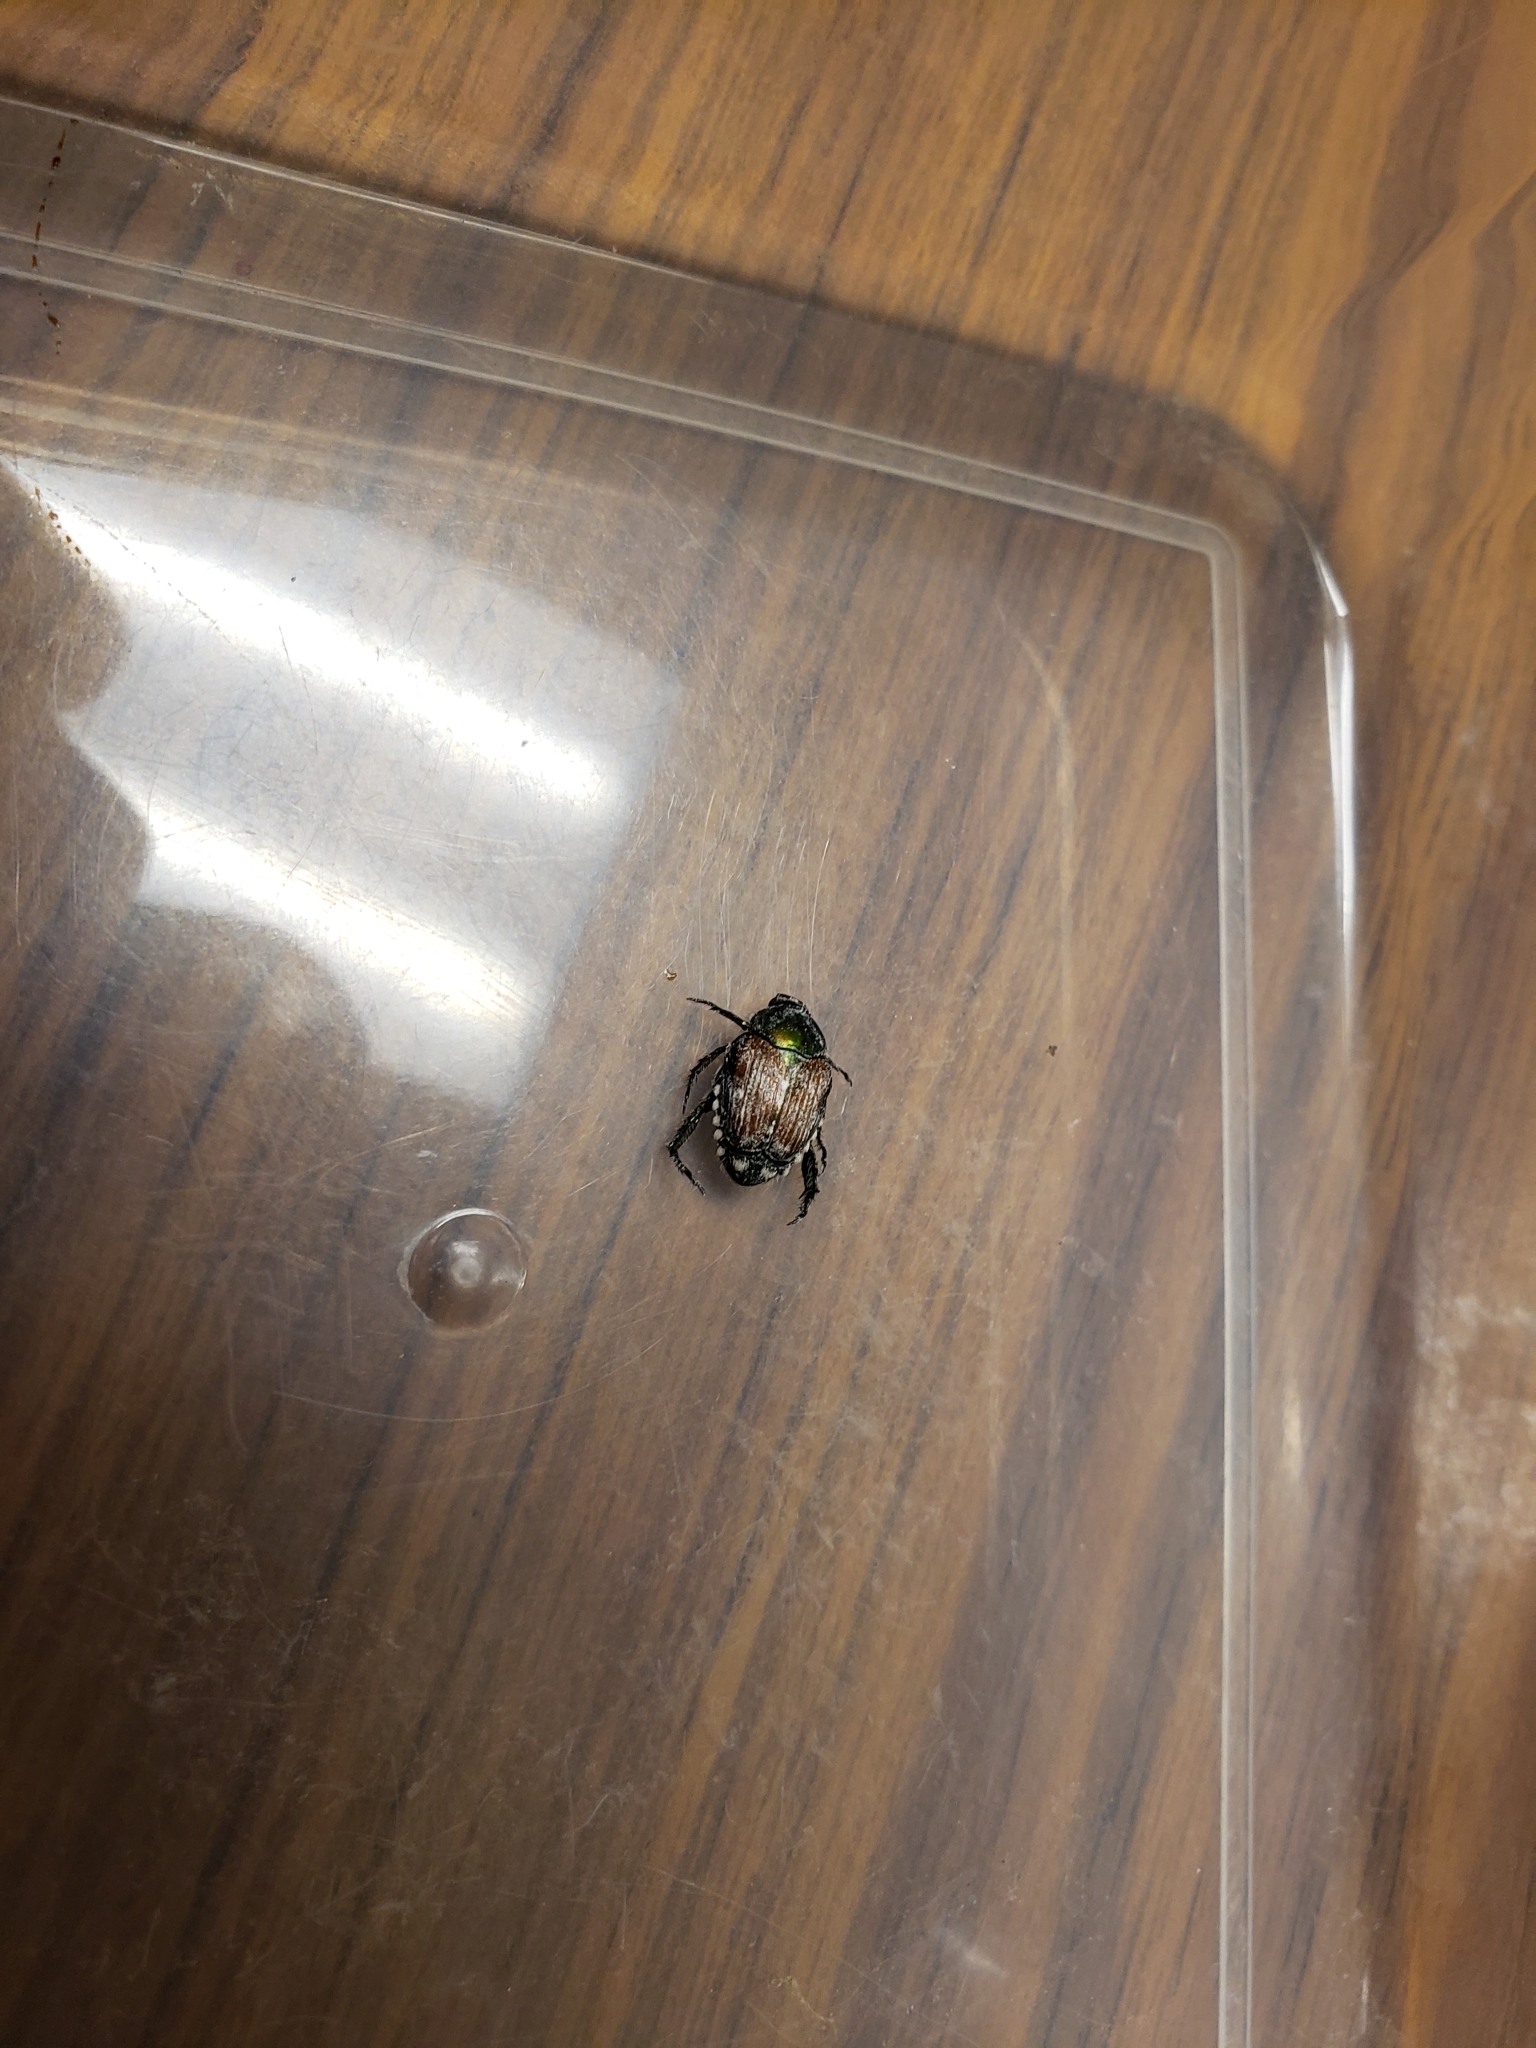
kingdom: Animalia
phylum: Arthropoda
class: Insecta
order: Coleoptera
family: Scarabaeidae
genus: Popillia
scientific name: Popillia japonica
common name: Japanese beetle
